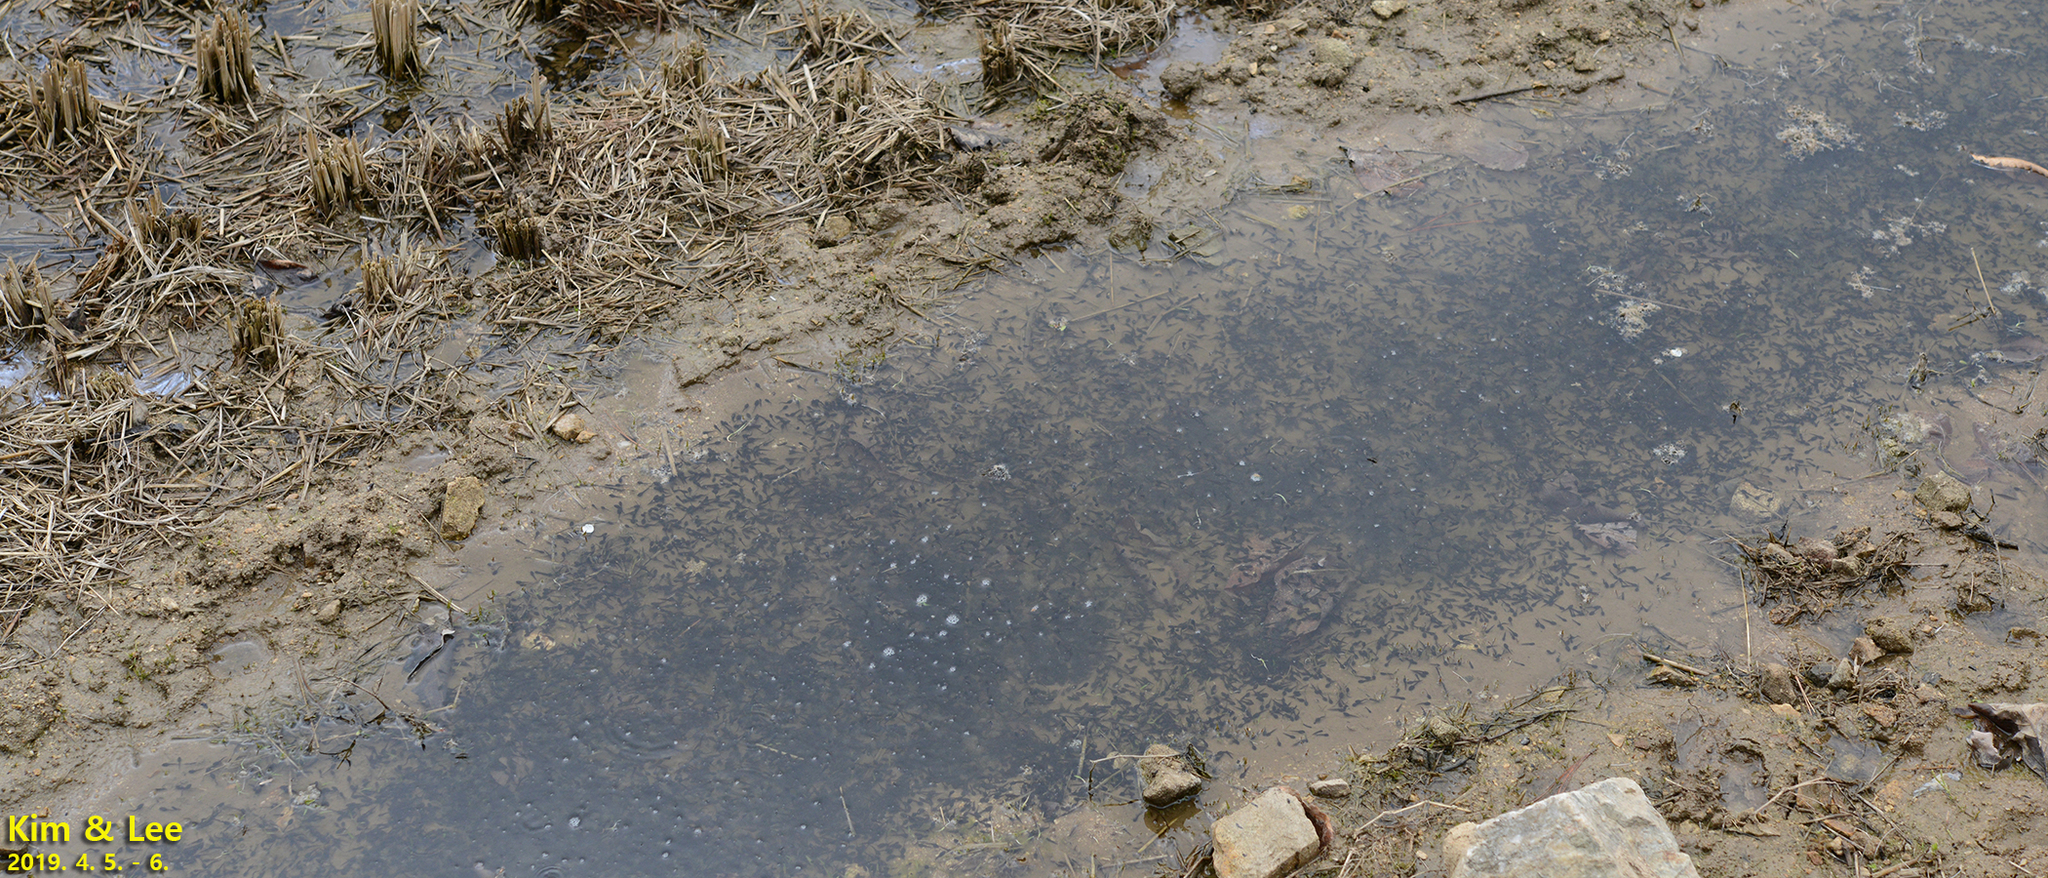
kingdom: Animalia
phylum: Chordata
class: Amphibia
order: Anura
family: Ranidae
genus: Rana
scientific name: Rana uenoi
